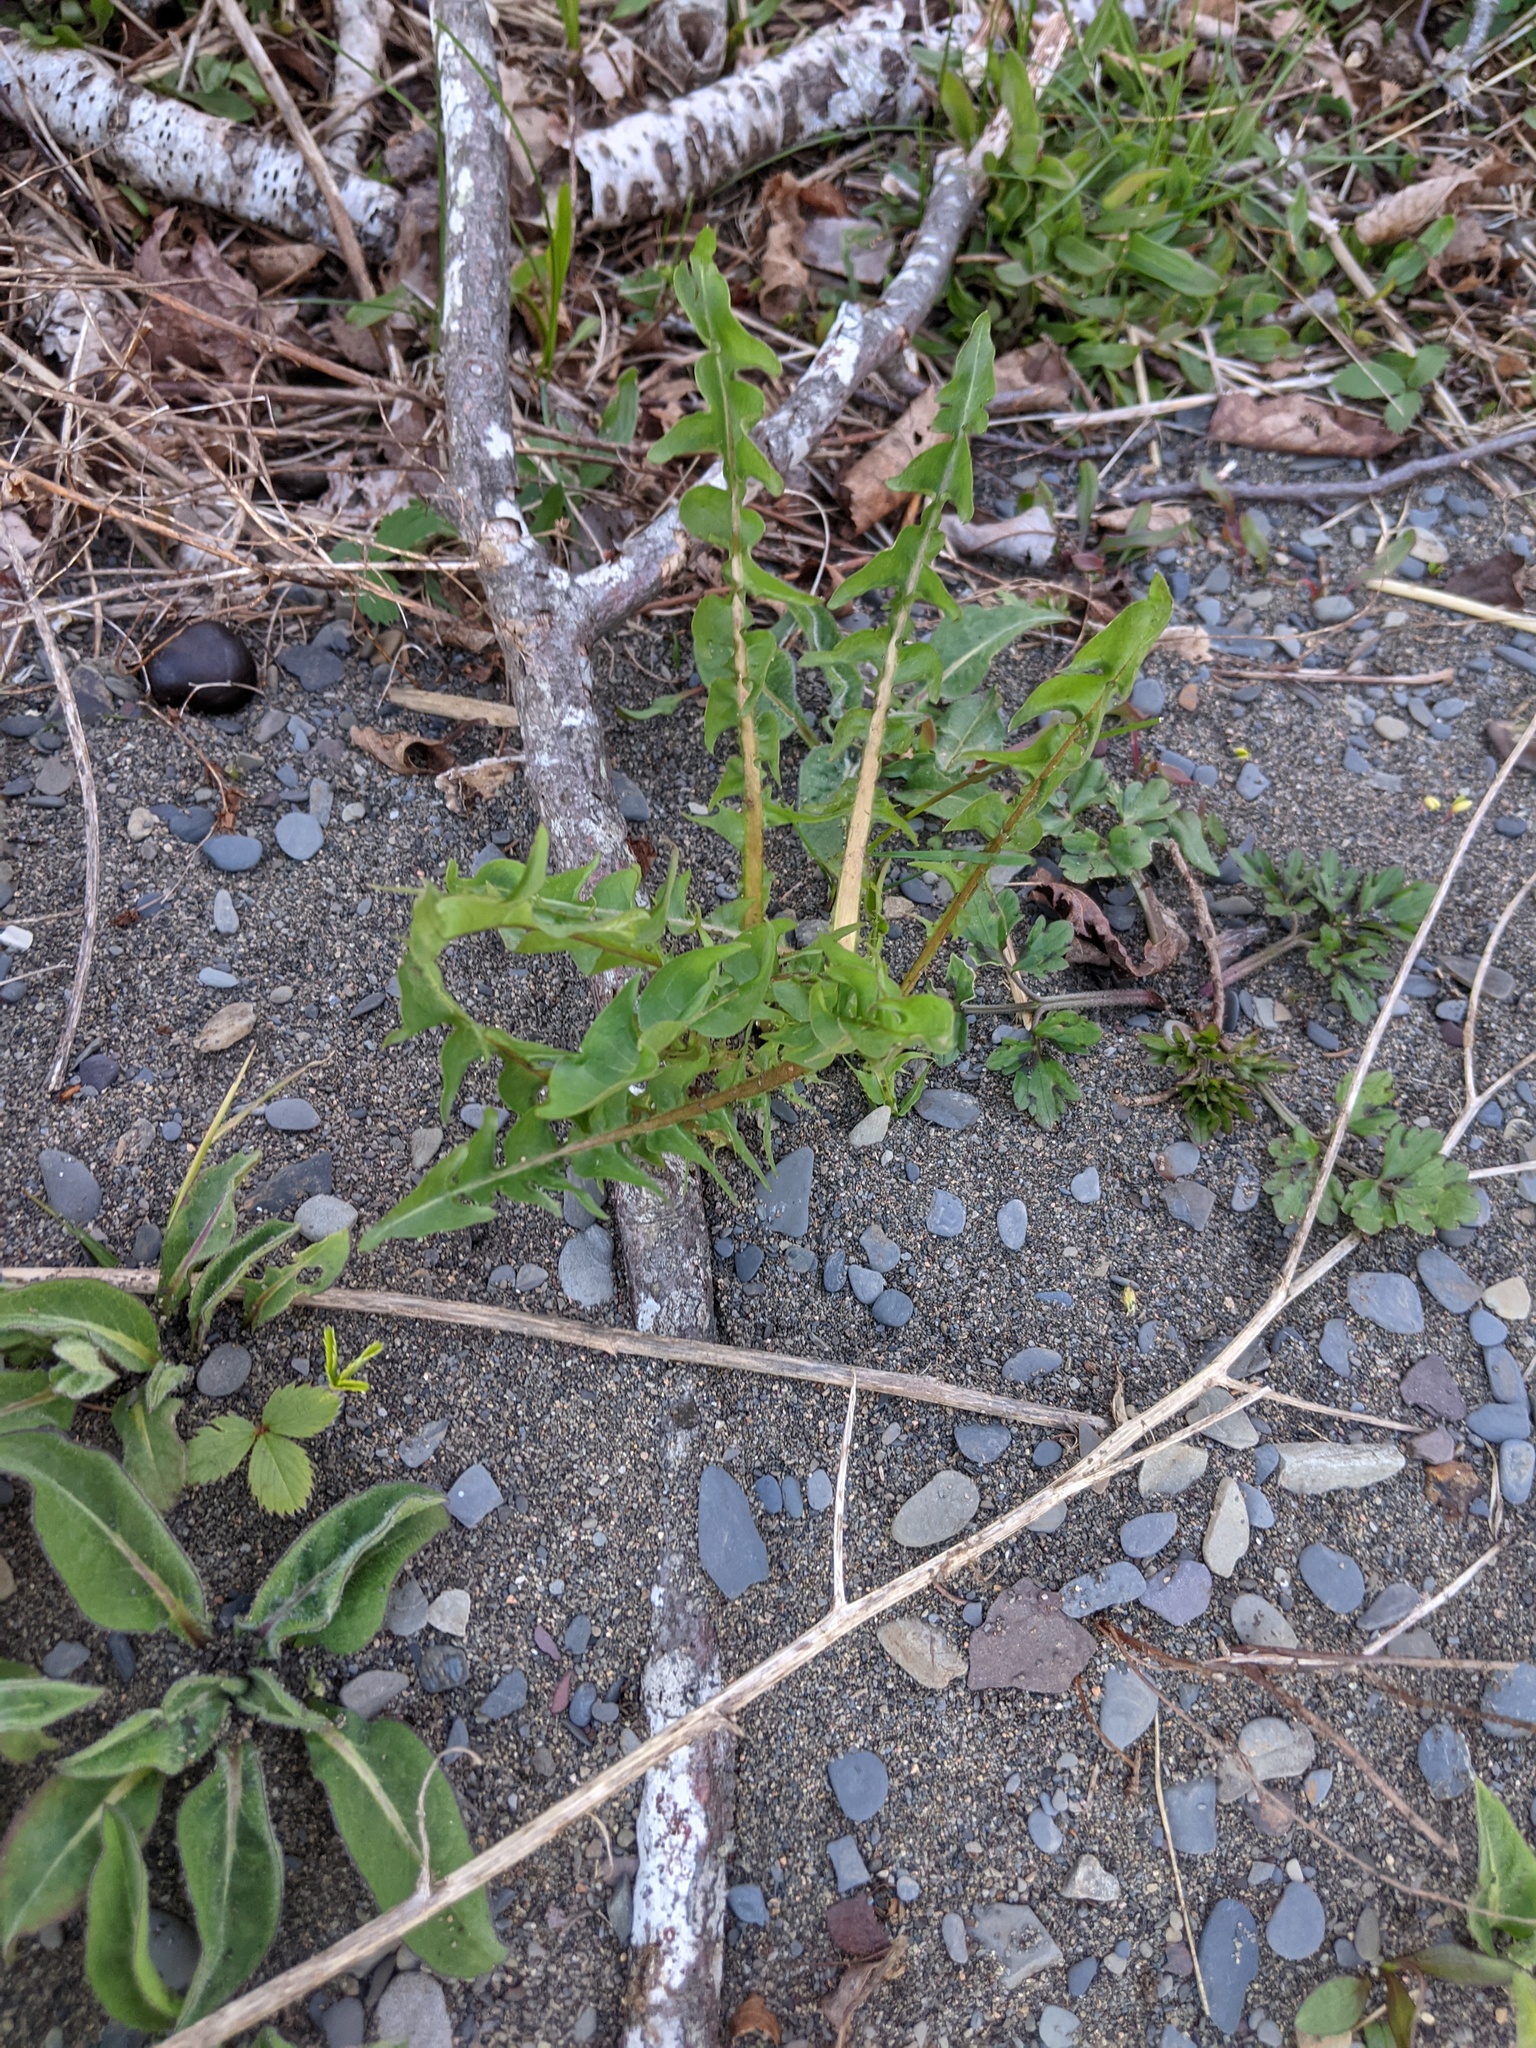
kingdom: Plantae
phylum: Tracheophyta
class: Magnoliopsida
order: Asterales
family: Asteraceae
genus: Taraxacum
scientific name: Taraxacum officinale
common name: Common dandelion
